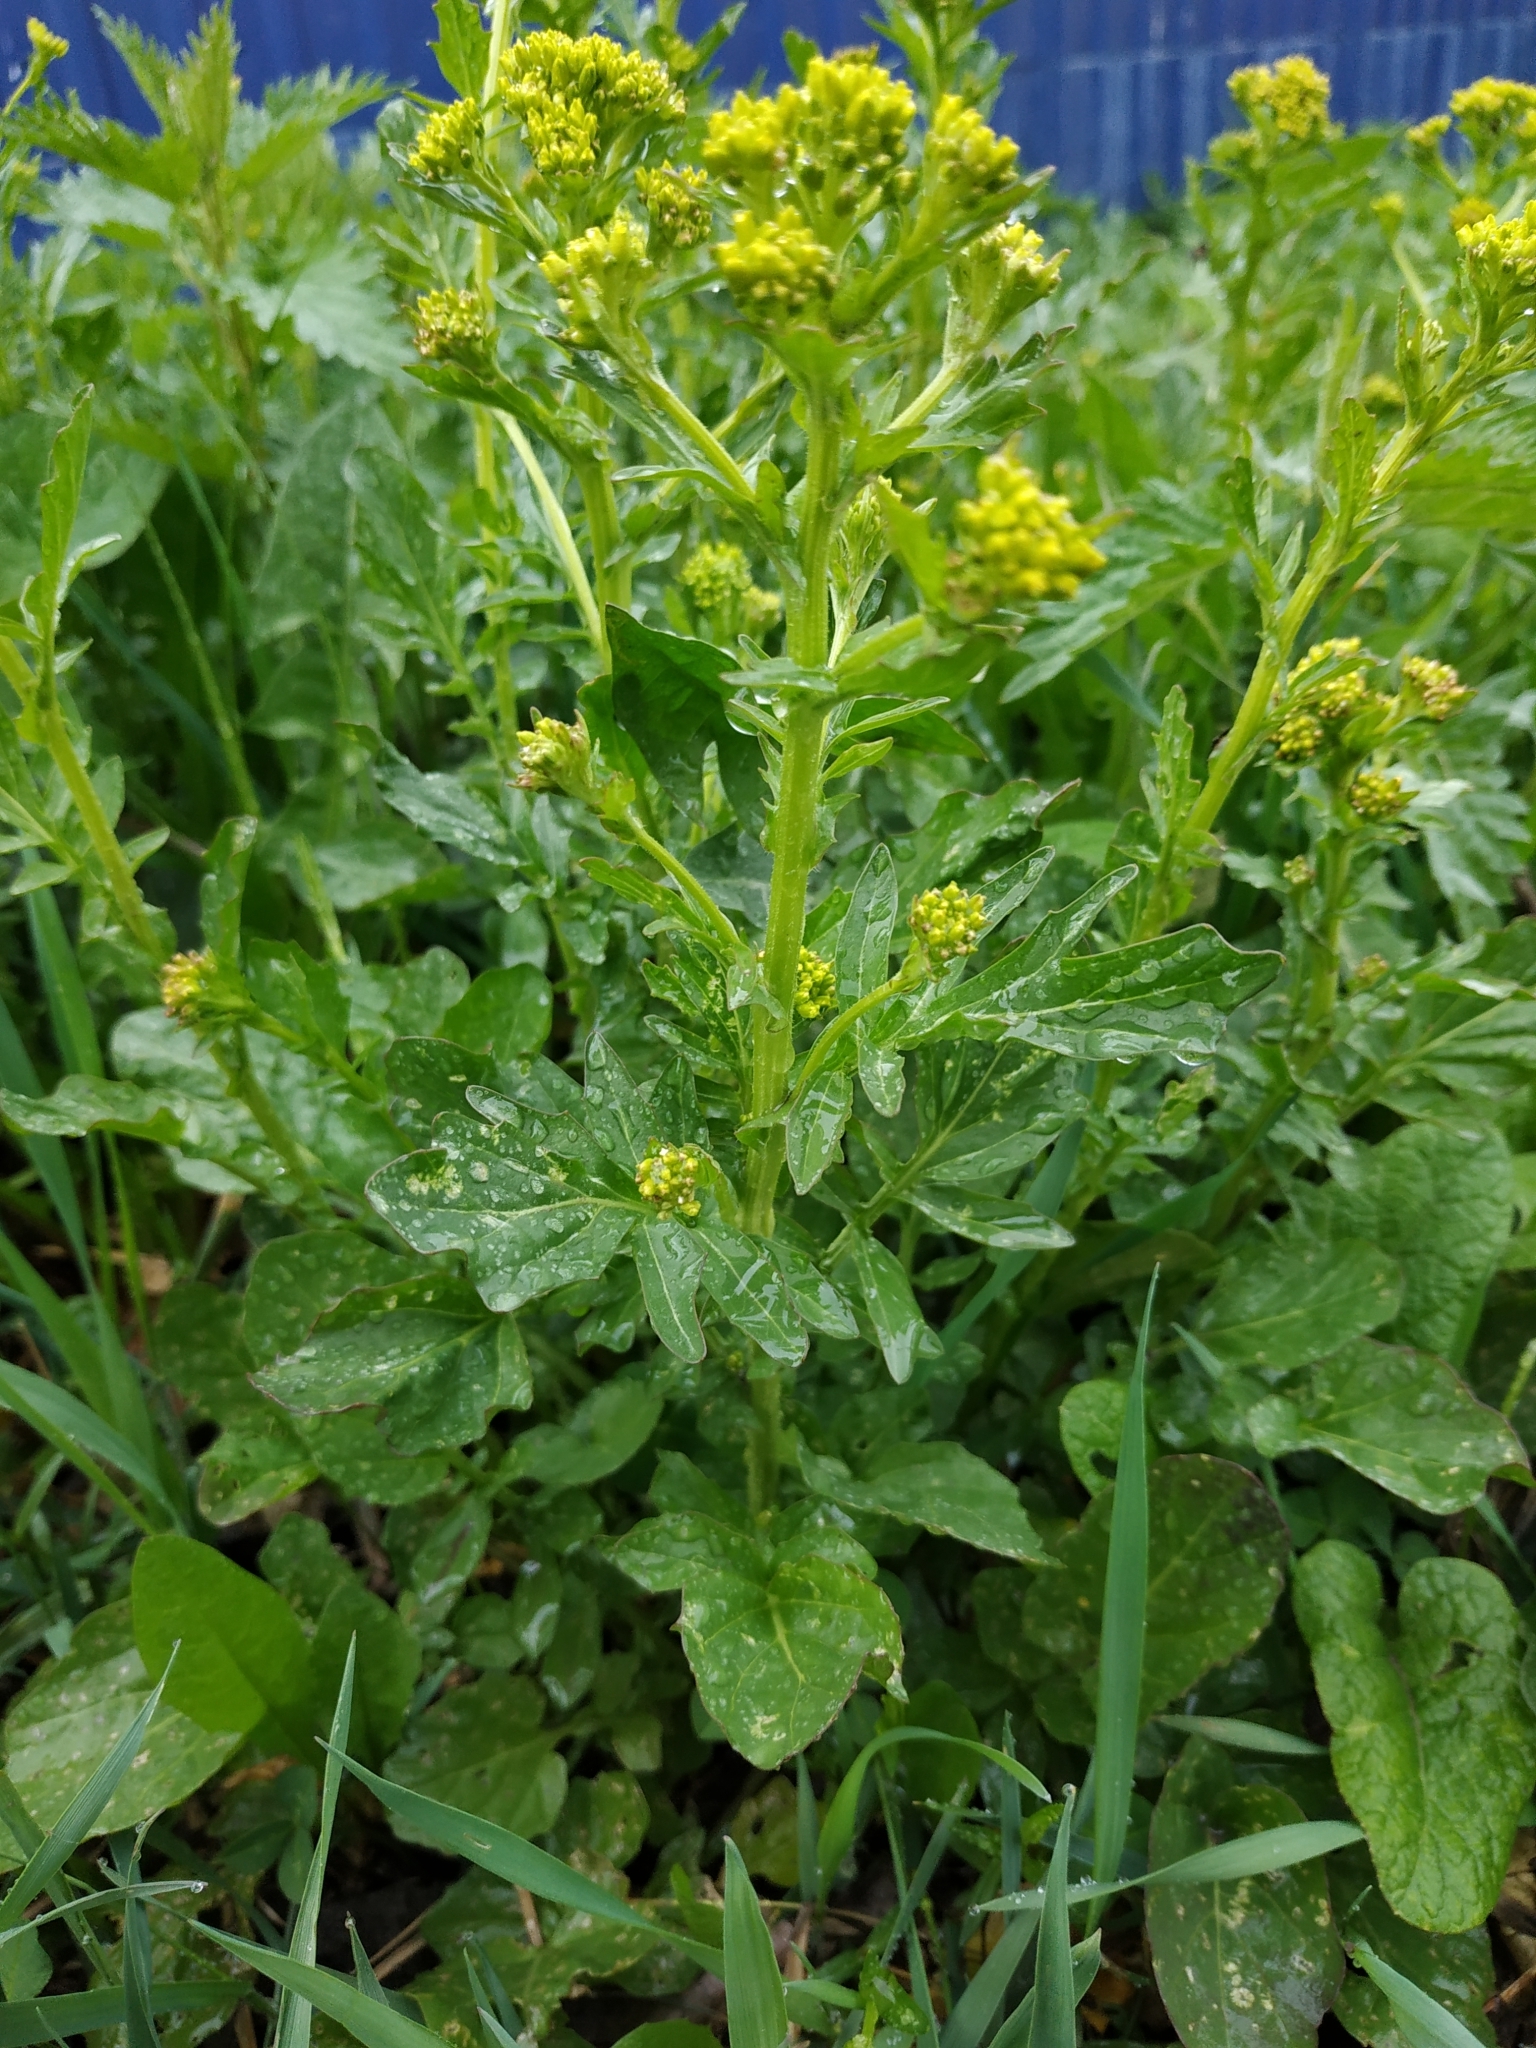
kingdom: Plantae
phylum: Tracheophyta
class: Magnoliopsida
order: Brassicales
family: Brassicaceae
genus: Barbarea
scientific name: Barbarea vulgaris
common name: Cressy-greens
